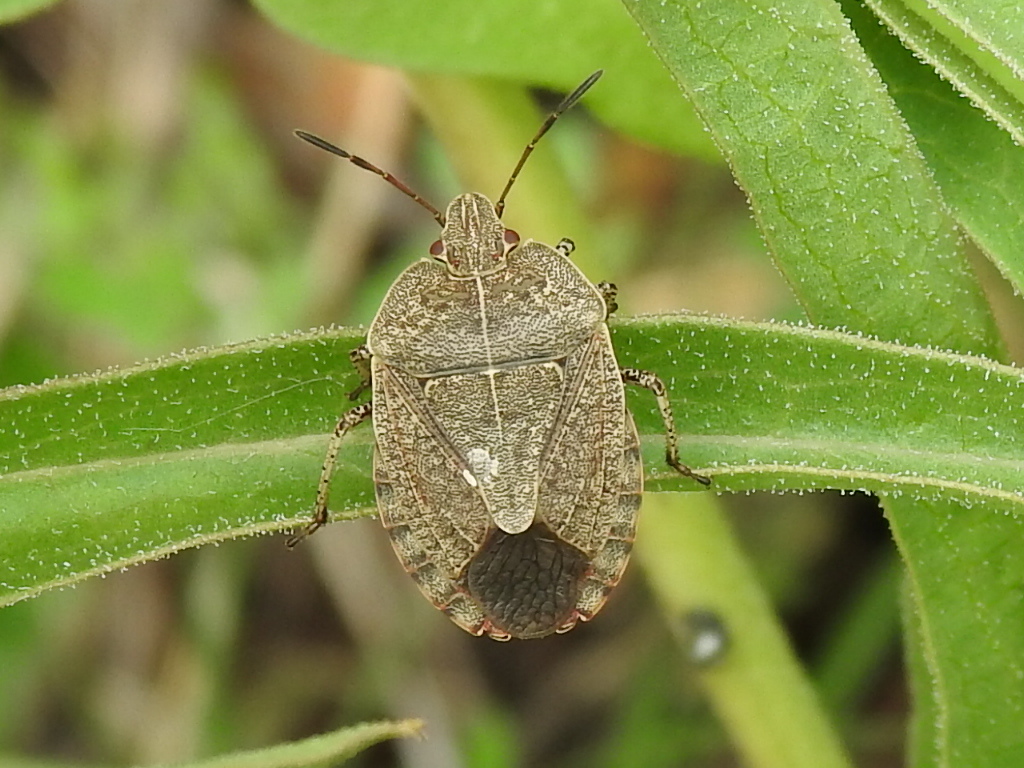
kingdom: Animalia
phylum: Arthropoda
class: Insecta
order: Hemiptera
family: Pentatomidae
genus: Menecles
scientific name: Menecles insertus
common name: Elf shoe stink bug
